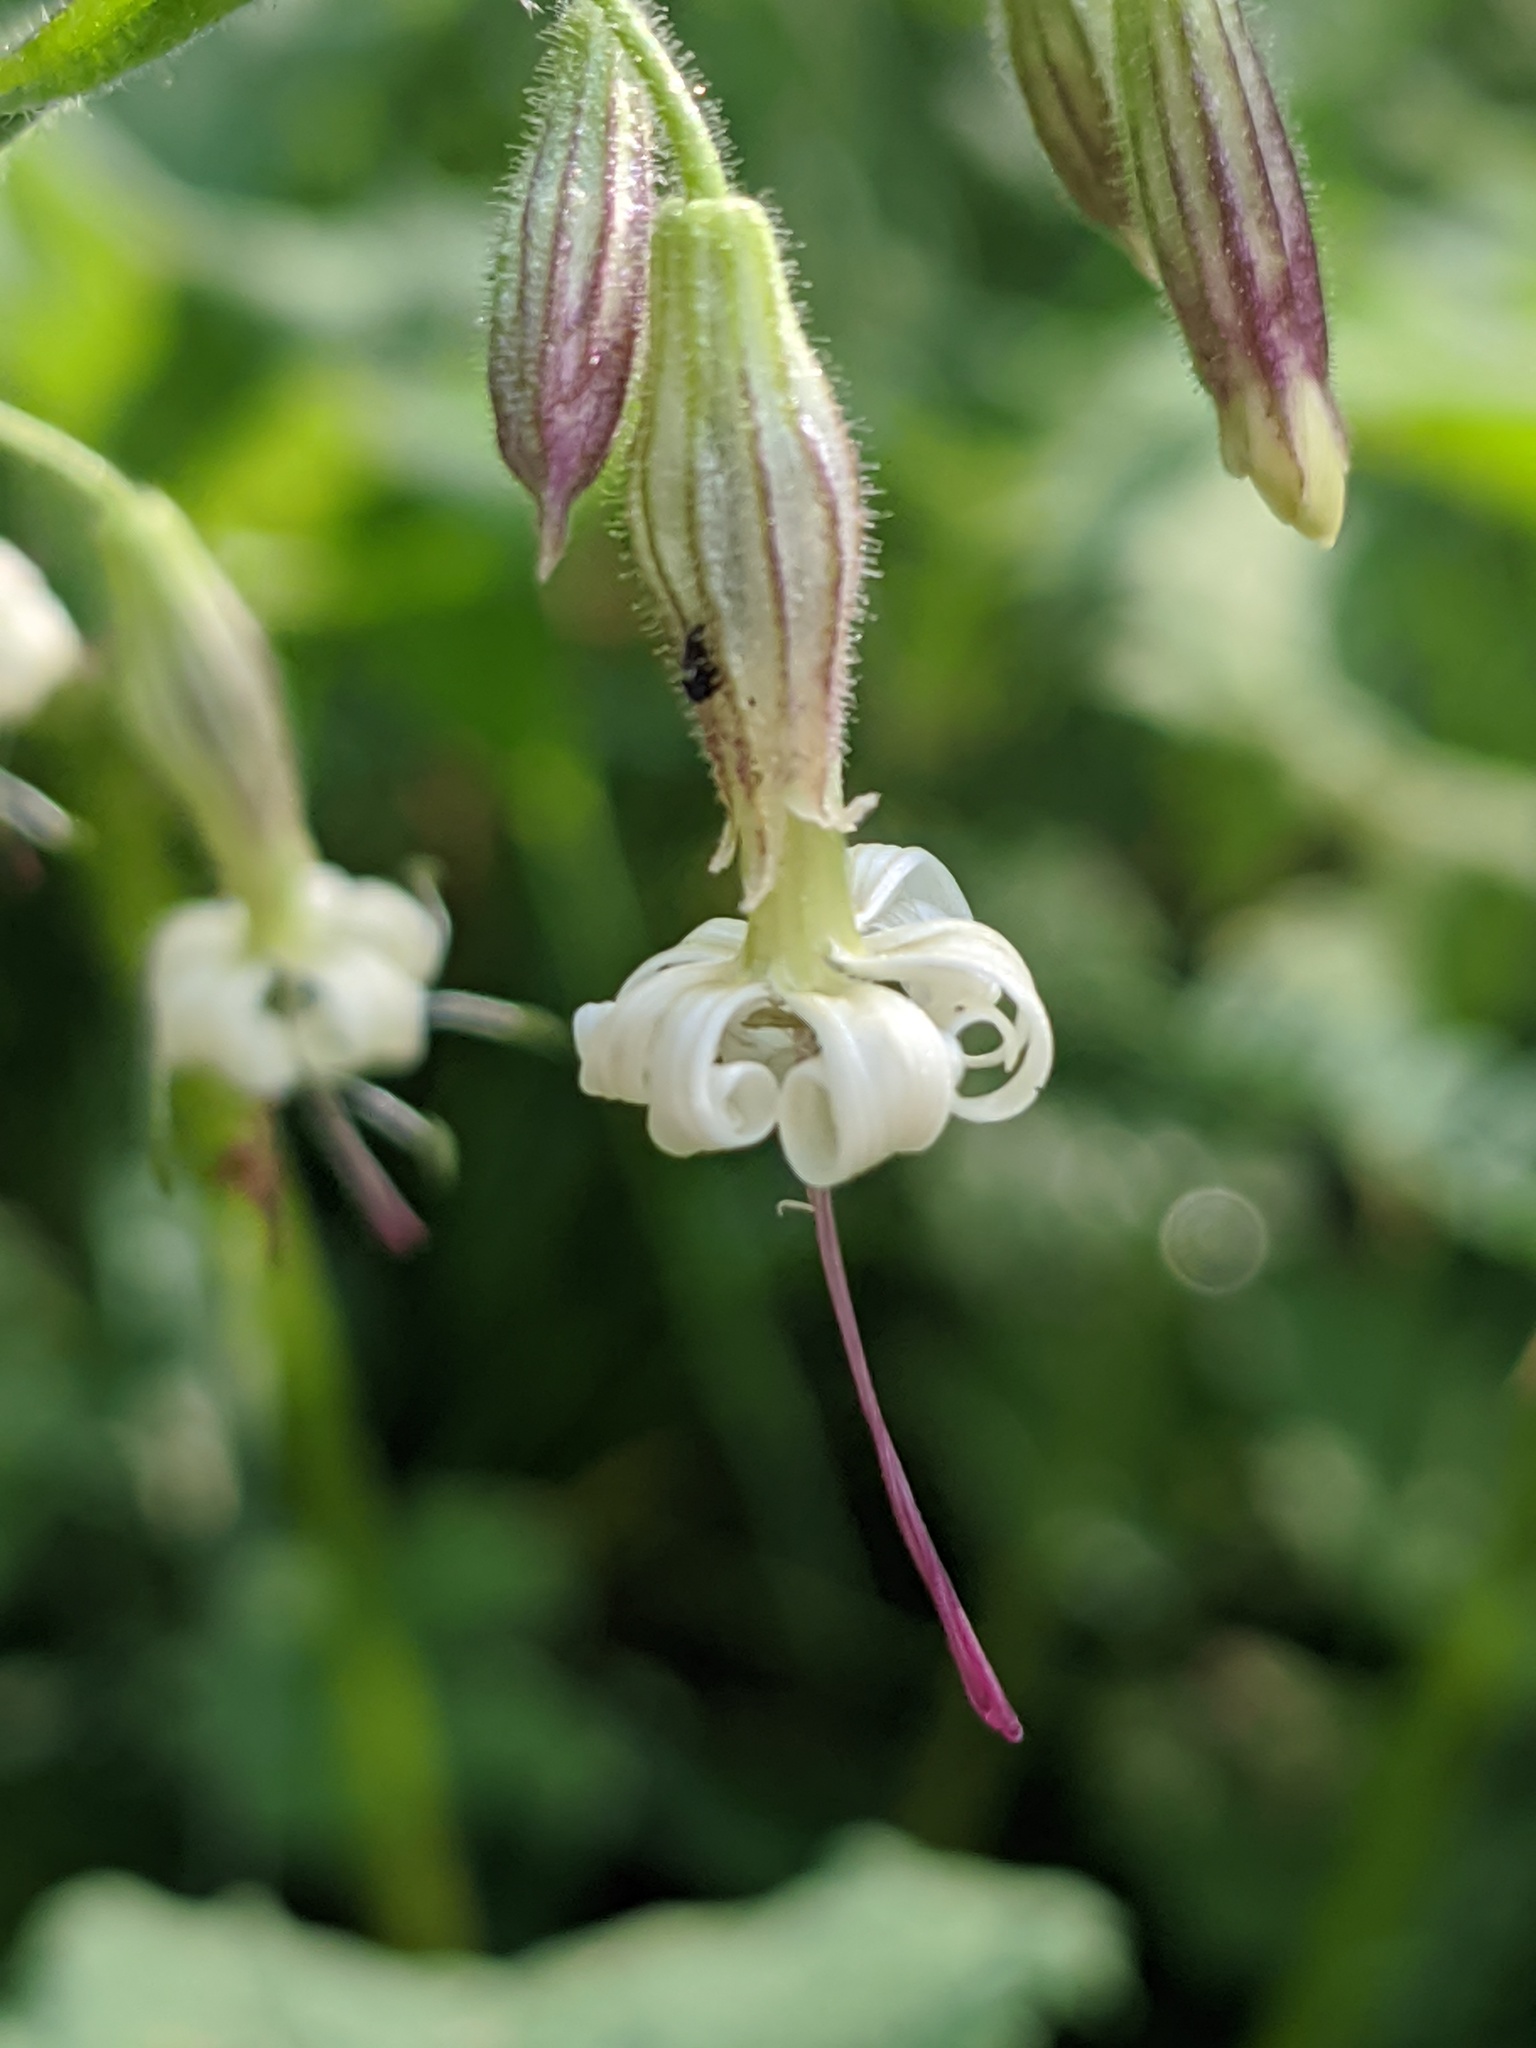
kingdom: Plantae
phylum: Tracheophyta
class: Magnoliopsida
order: Caryophyllales
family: Caryophyllaceae
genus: Silene
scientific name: Silene nutans
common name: Nottingham catchfly
